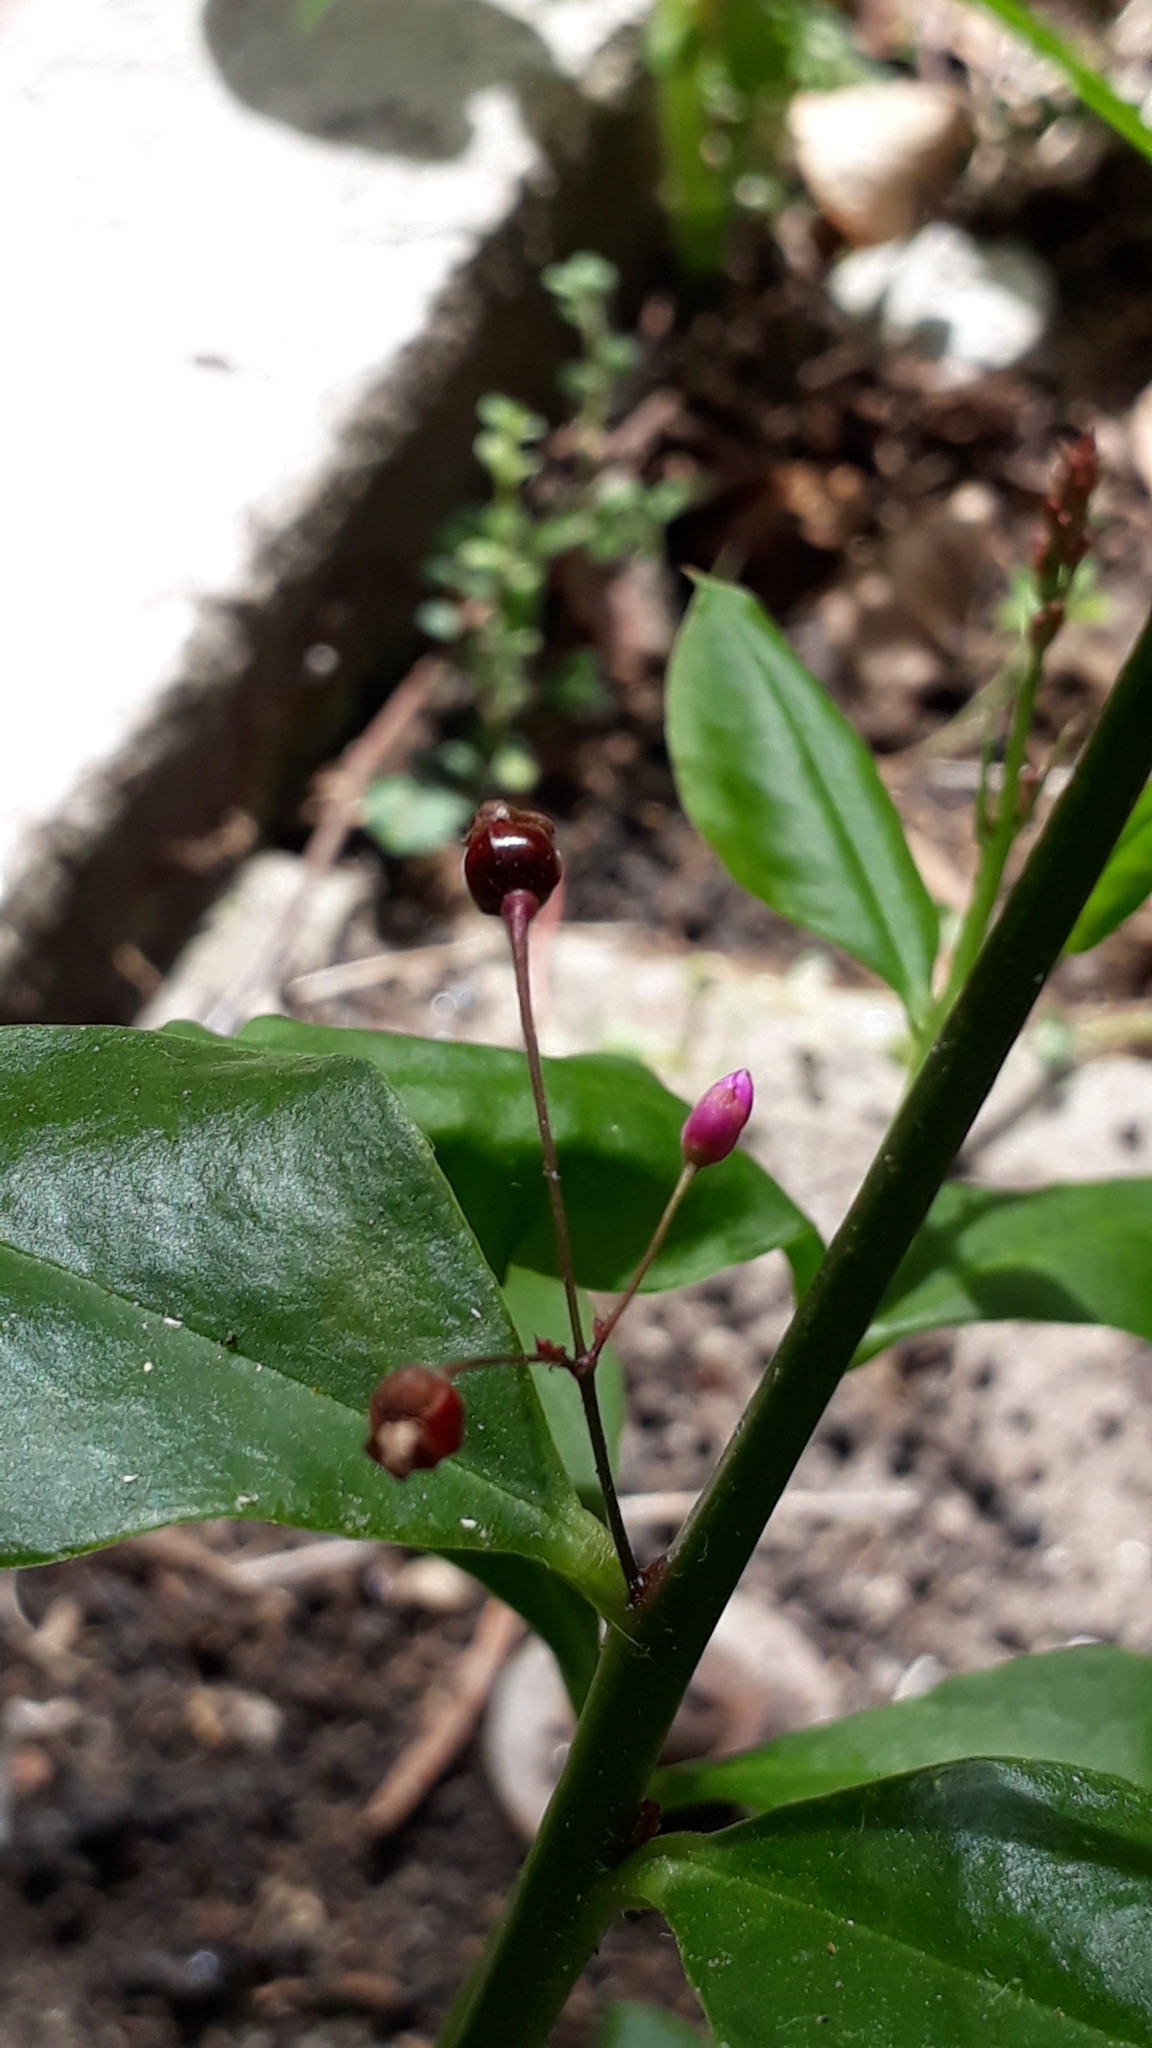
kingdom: Plantae
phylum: Tracheophyta
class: Magnoliopsida
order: Caryophyllales
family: Talinaceae
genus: Talinum
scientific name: Talinum paniculatum
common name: Jewels of opar
